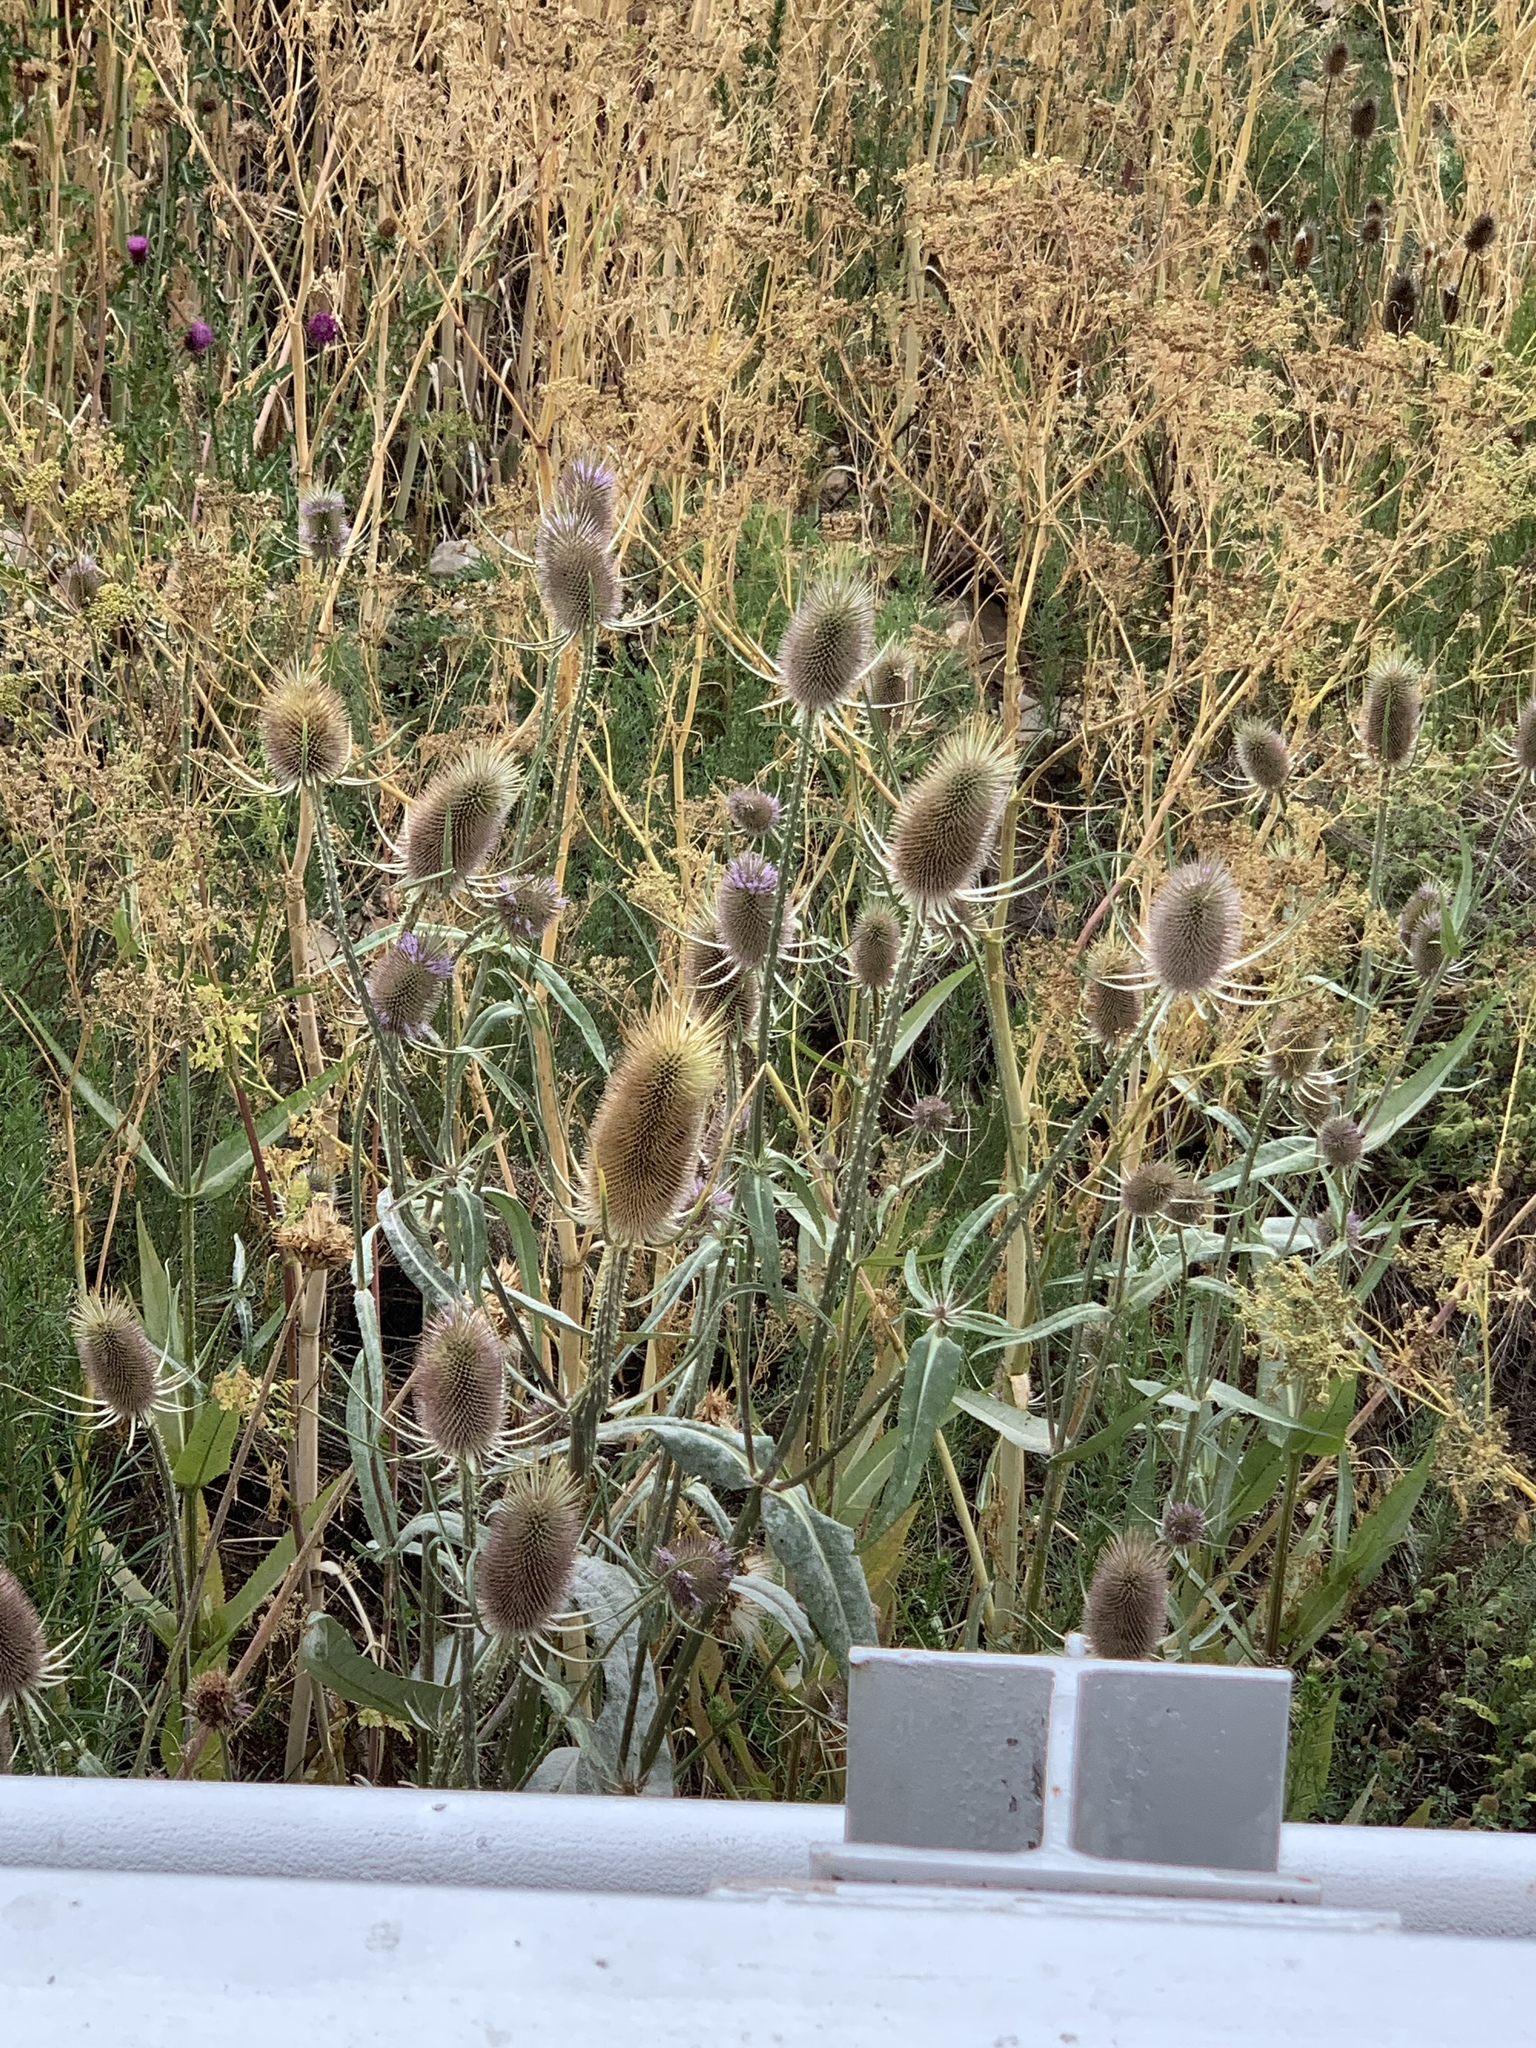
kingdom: Plantae
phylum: Tracheophyta
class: Magnoliopsida
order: Dipsacales
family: Caprifoliaceae
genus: Dipsacus
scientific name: Dipsacus fullonum
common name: Teasel
